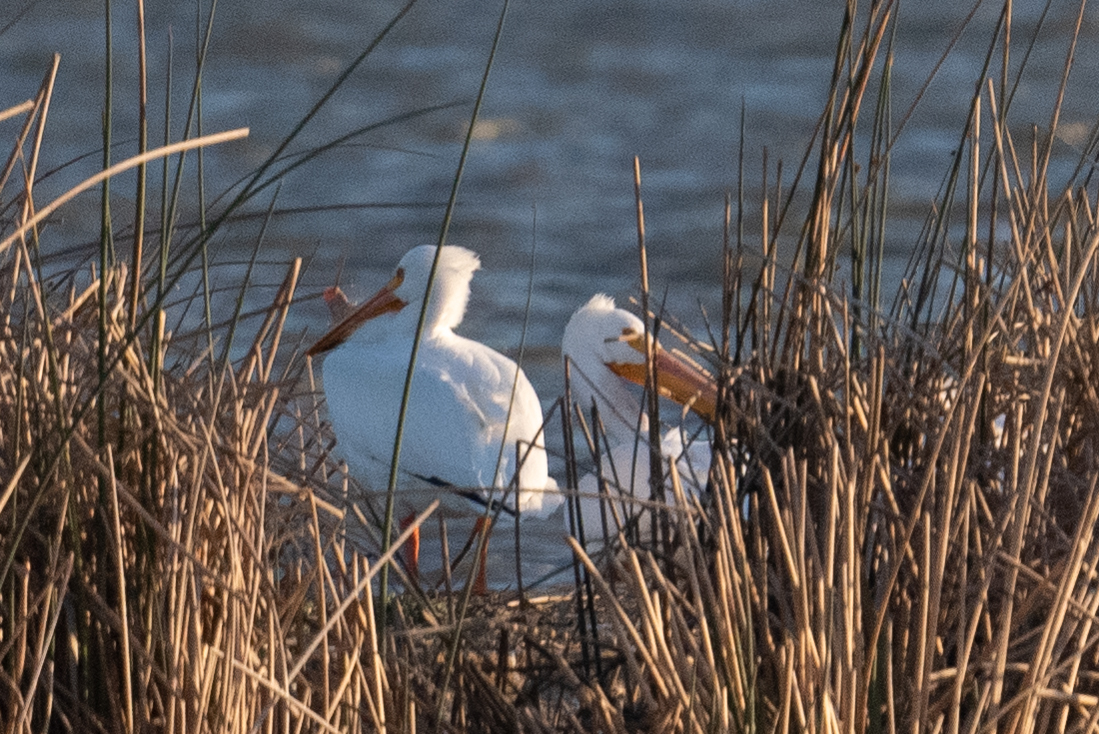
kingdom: Animalia
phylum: Chordata
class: Aves
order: Pelecaniformes
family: Pelecanidae
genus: Pelecanus
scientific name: Pelecanus erythrorhynchos
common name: American white pelican
